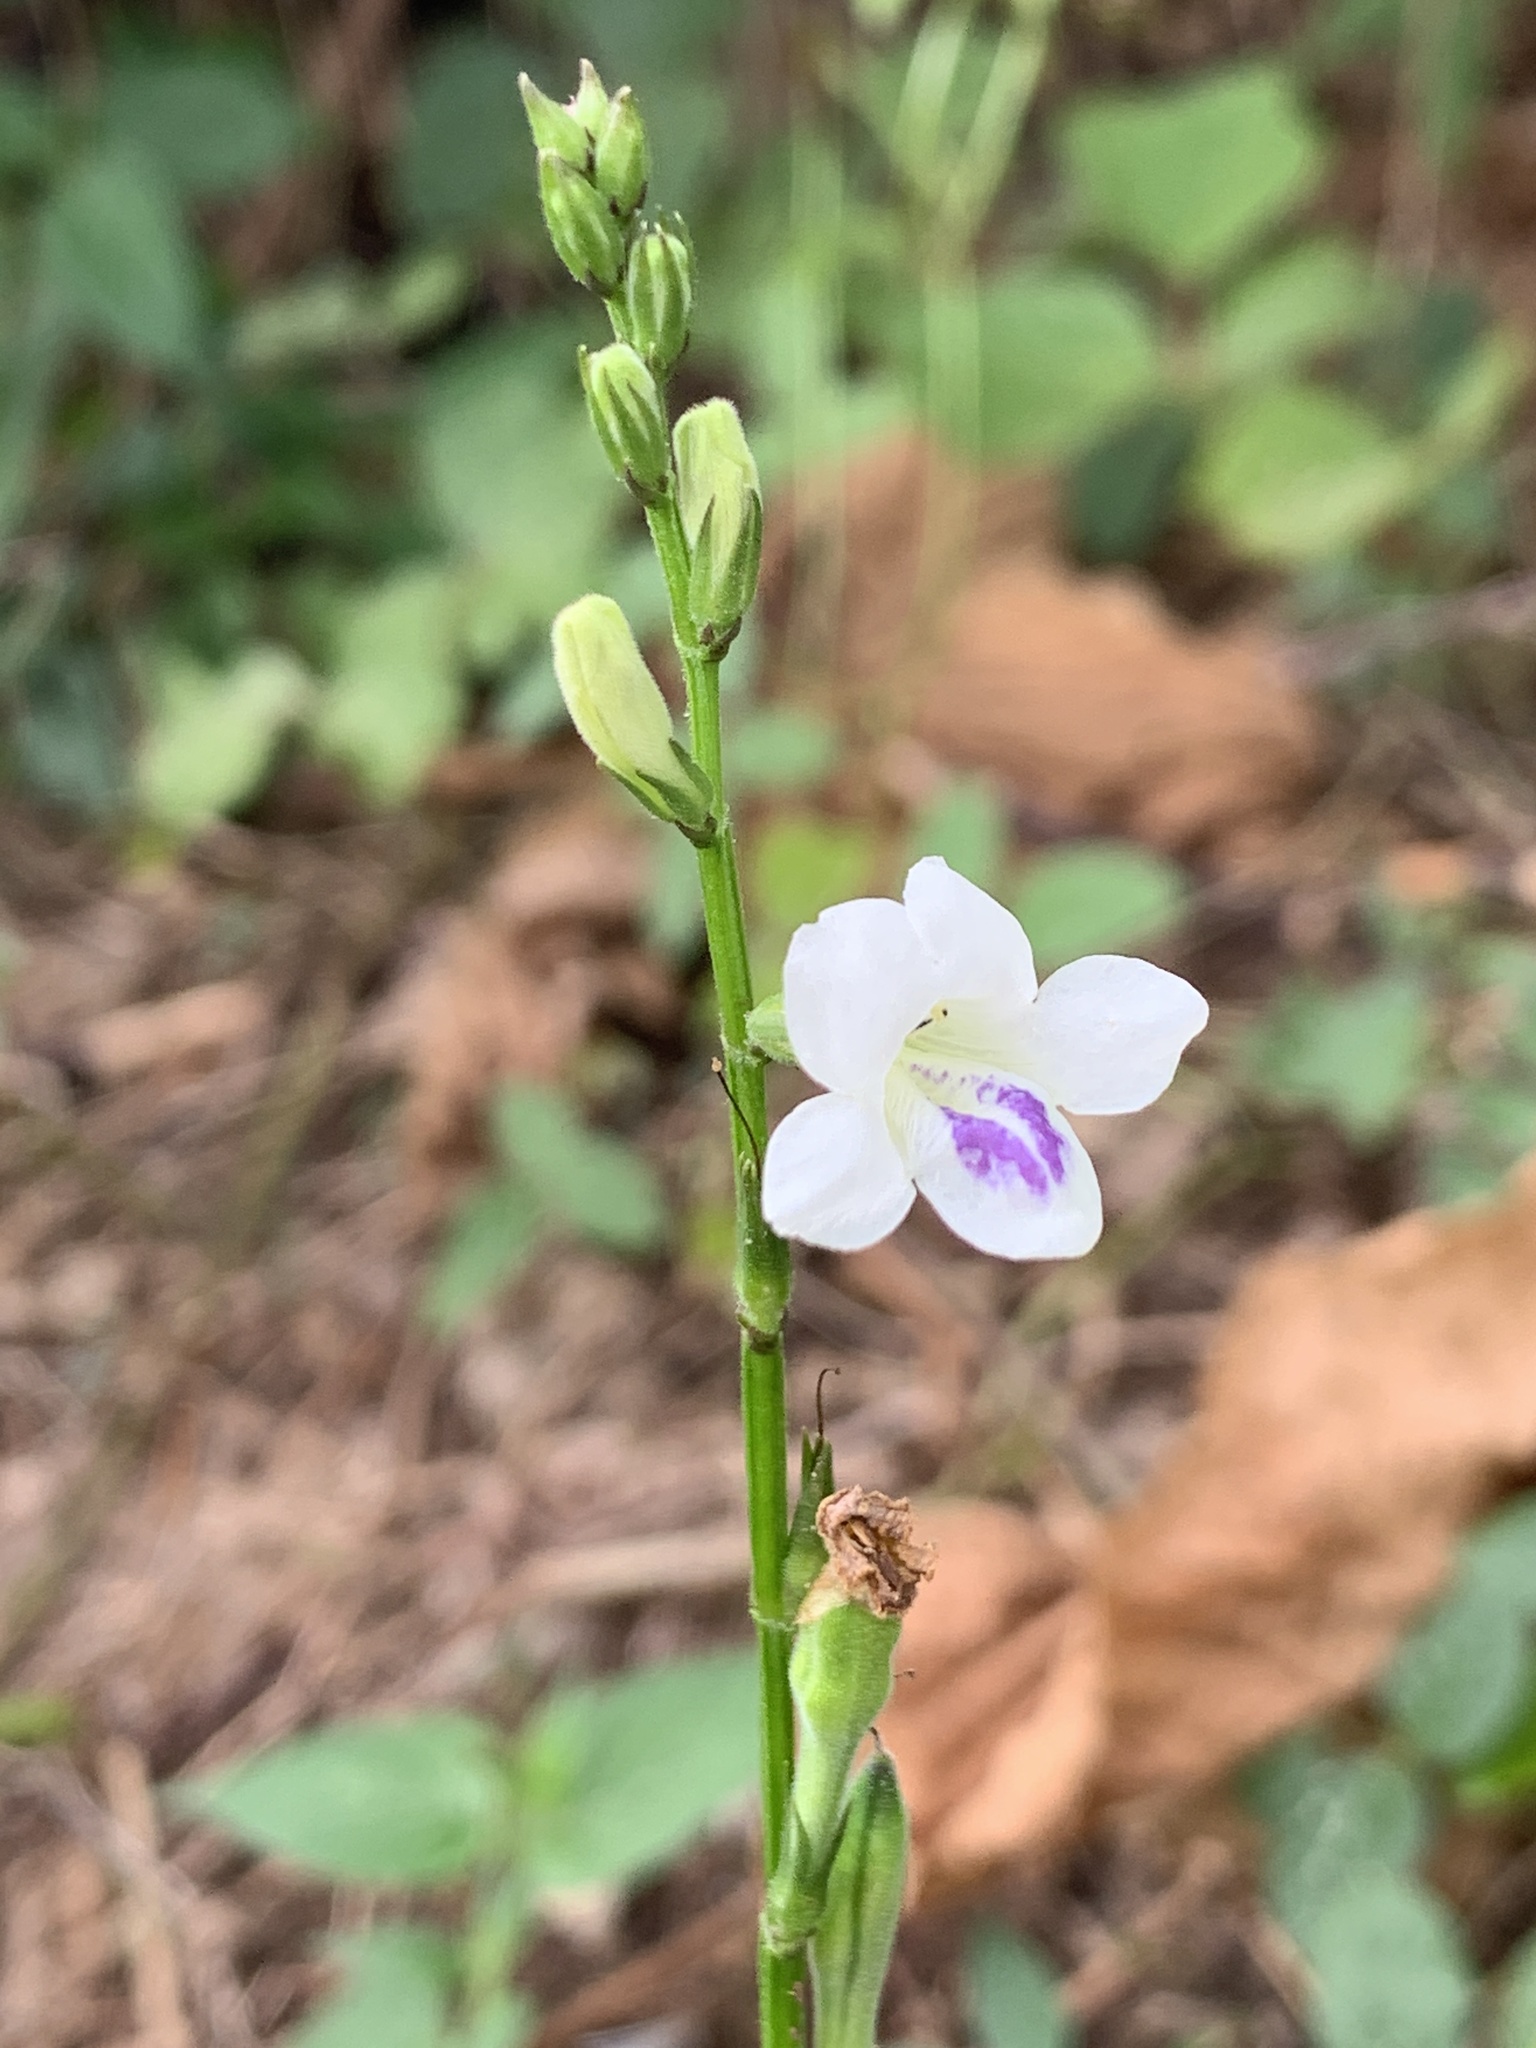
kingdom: Plantae
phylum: Tracheophyta
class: Magnoliopsida
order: Lamiales
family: Acanthaceae
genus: Asystasia
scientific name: Asystasia intrusa
